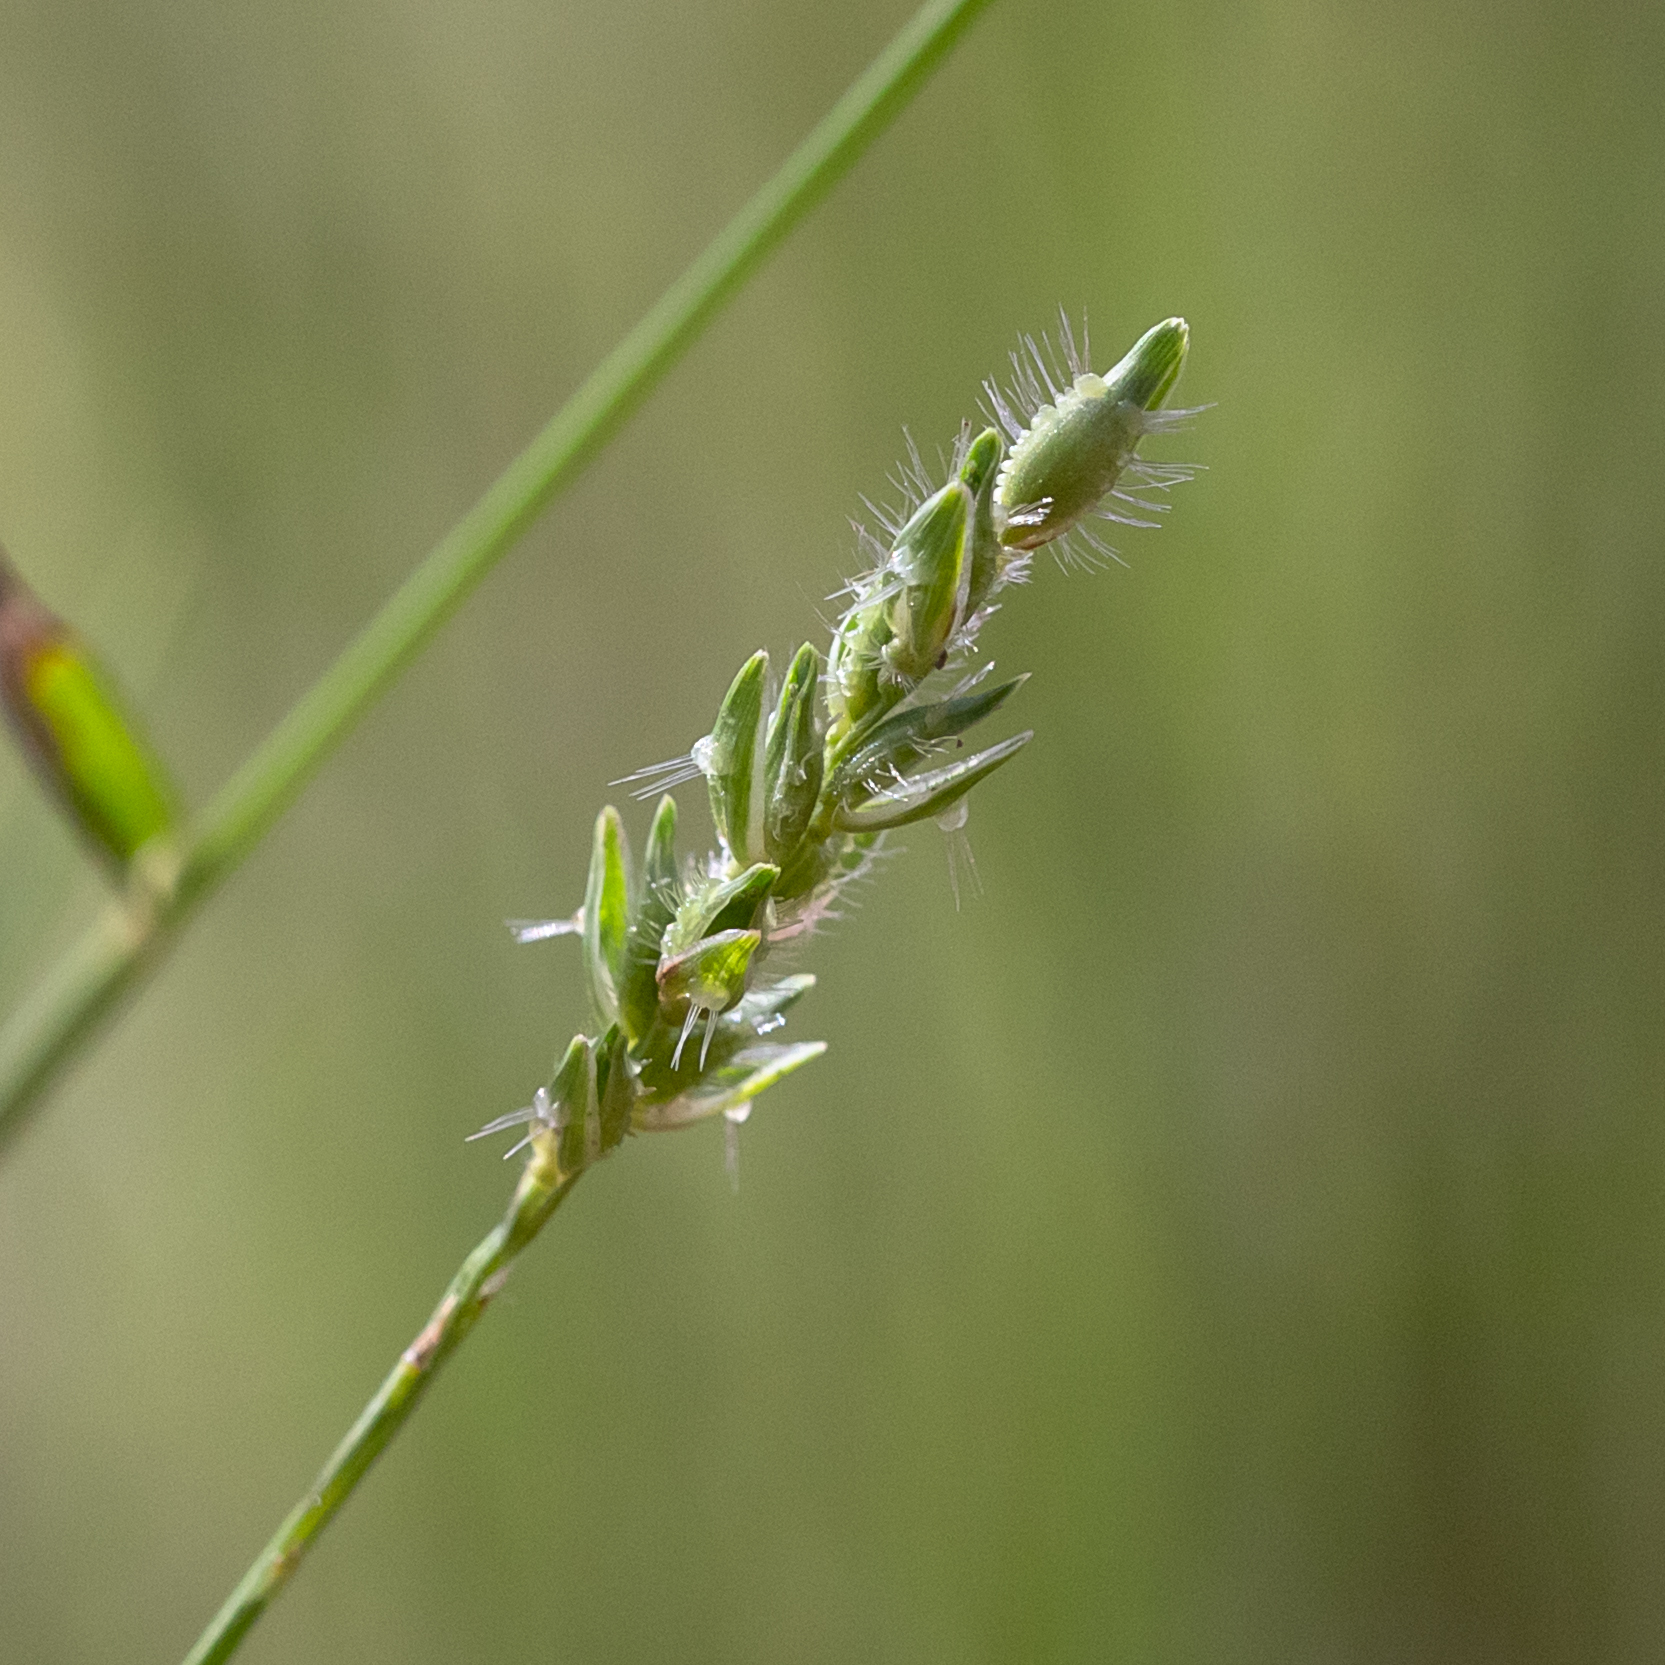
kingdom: Plantae
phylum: Tracheophyta
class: Liliopsida
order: Poales
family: Poaceae
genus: Thyridolepis
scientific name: Thyridolepis xerophila
